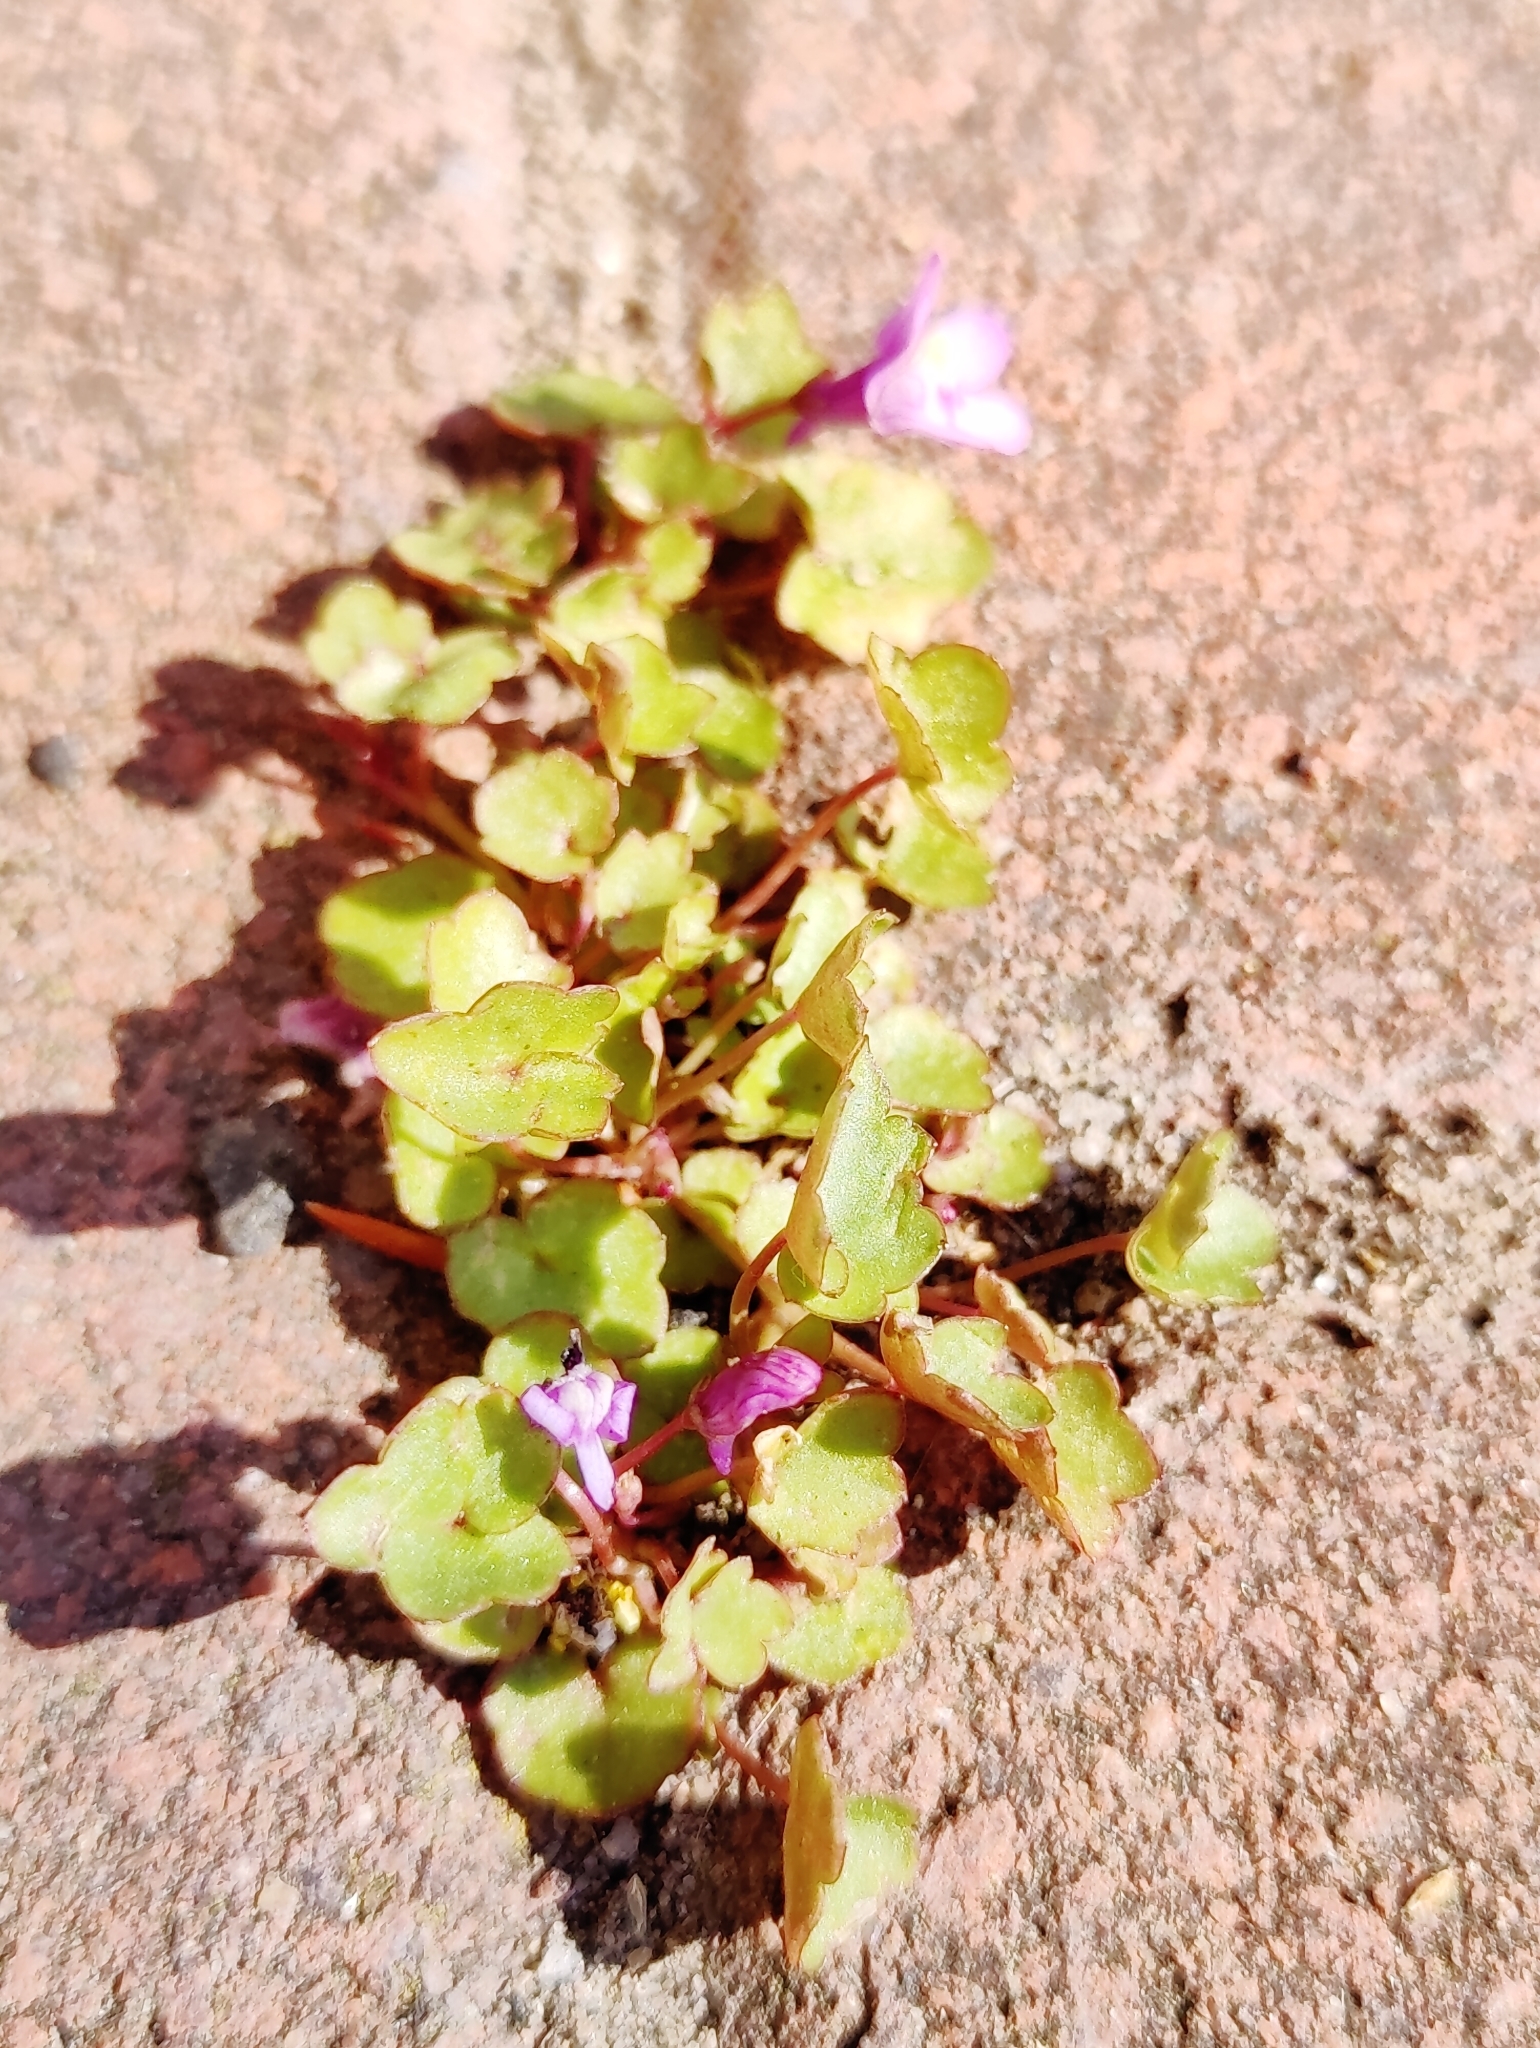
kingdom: Plantae
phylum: Tracheophyta
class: Magnoliopsida
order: Lamiales
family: Plantaginaceae
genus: Cymbalaria
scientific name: Cymbalaria muralis
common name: Ivy-leaved toadflax
